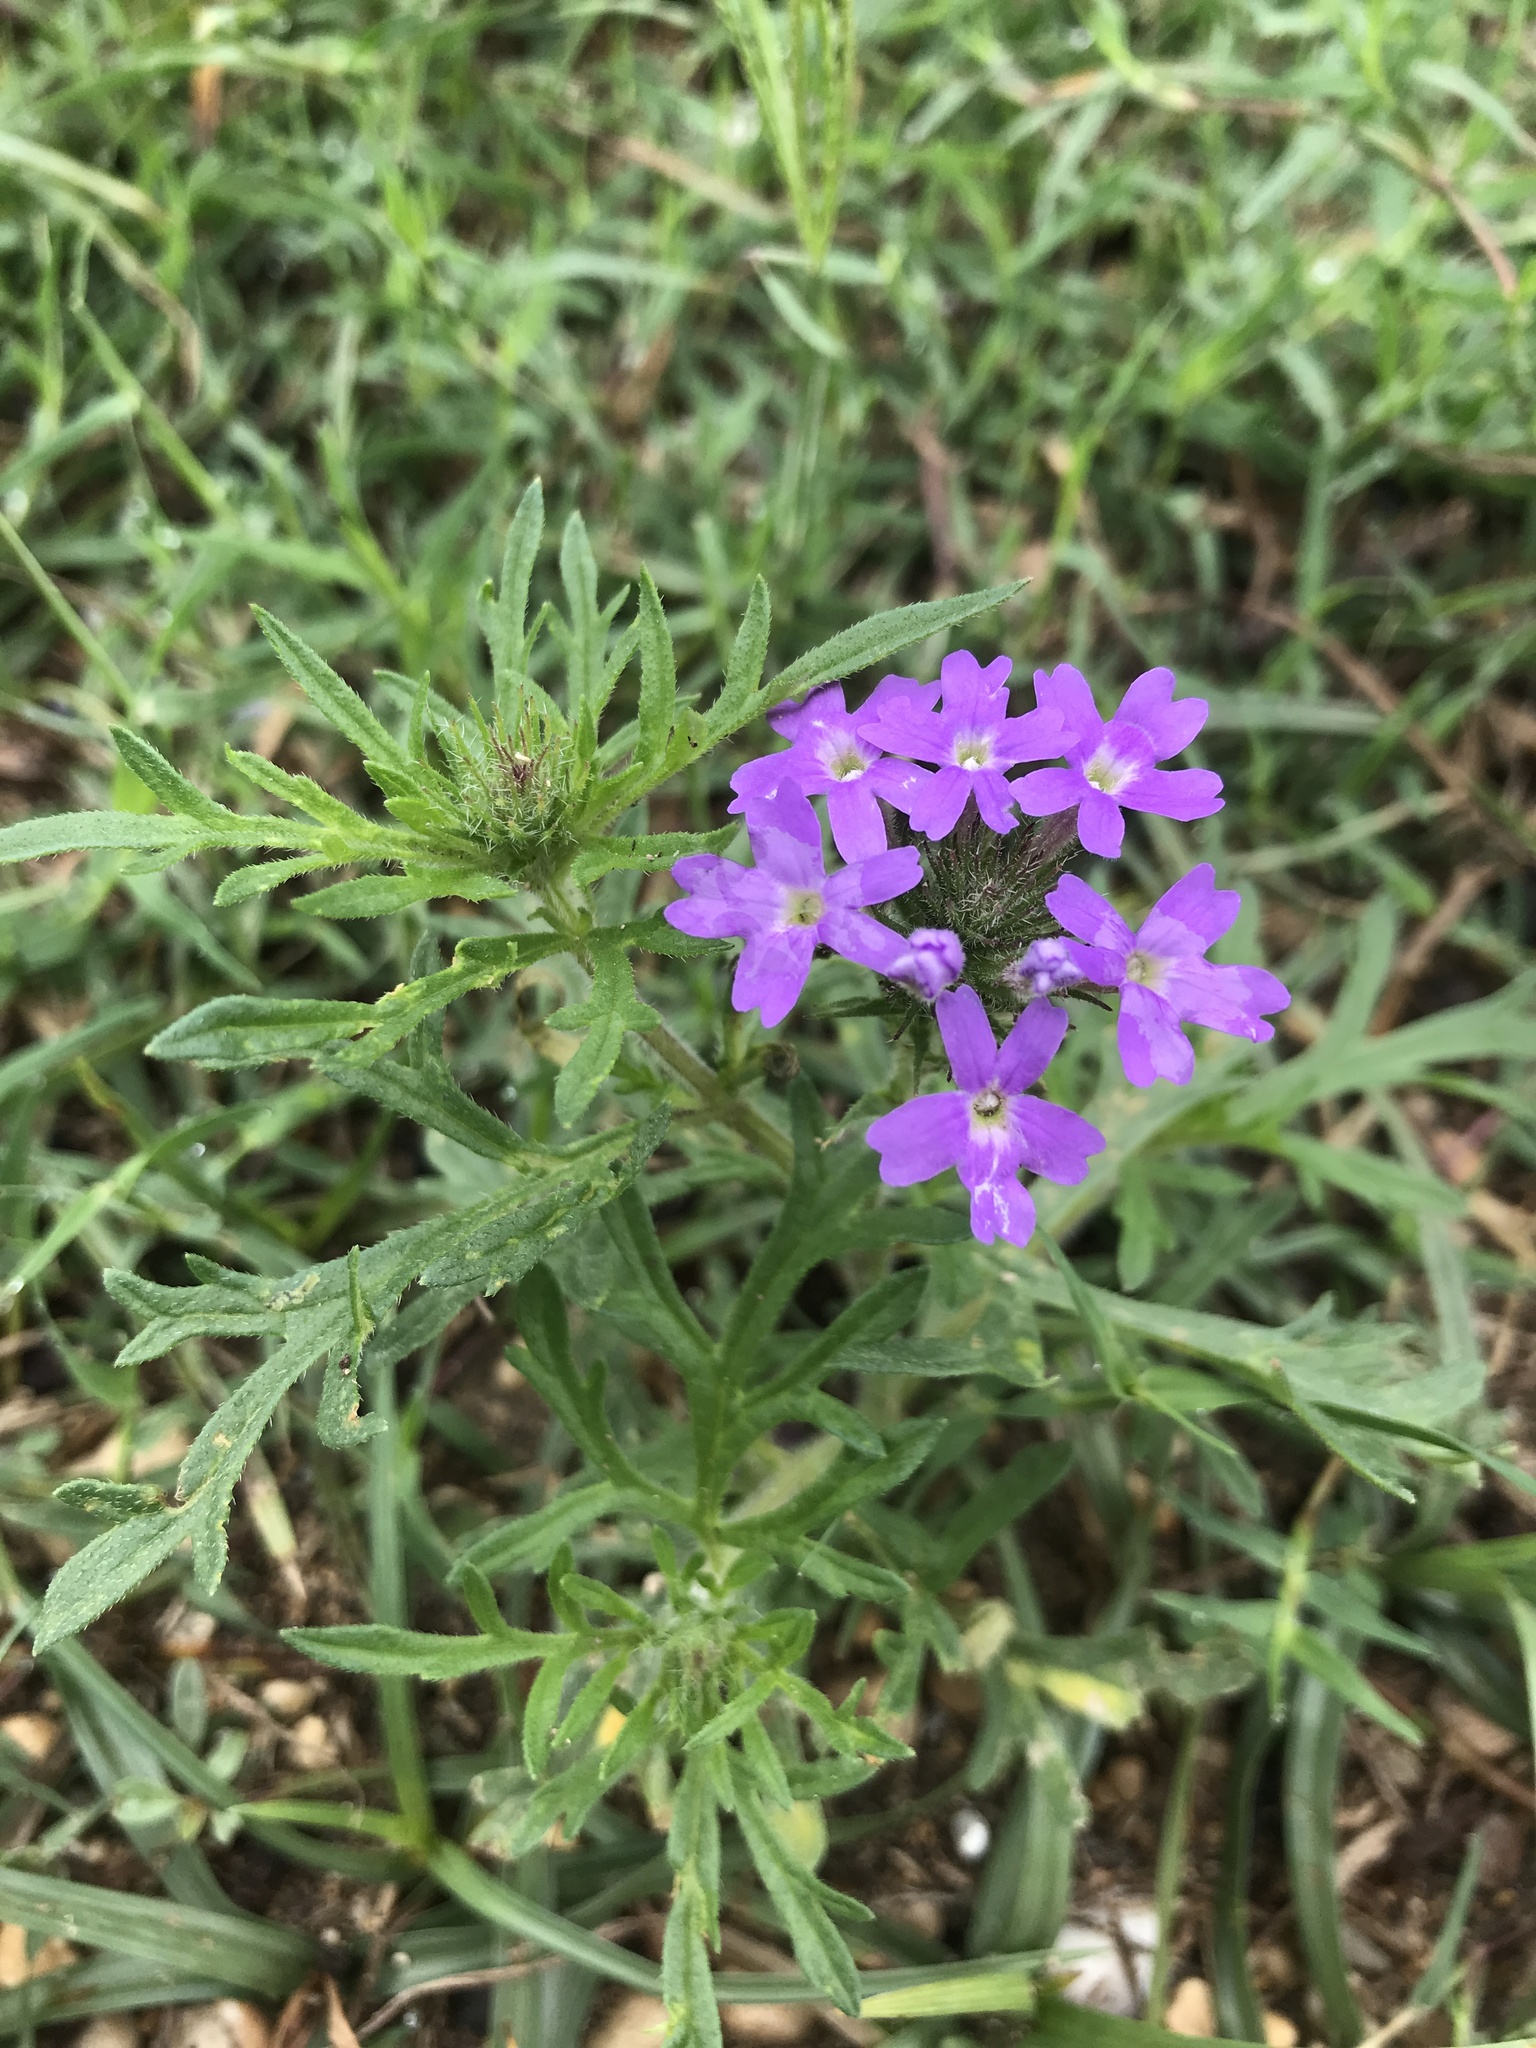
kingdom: Plantae
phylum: Tracheophyta
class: Magnoliopsida
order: Lamiales
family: Verbenaceae
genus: Verbena
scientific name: Verbena bipinnatifida
